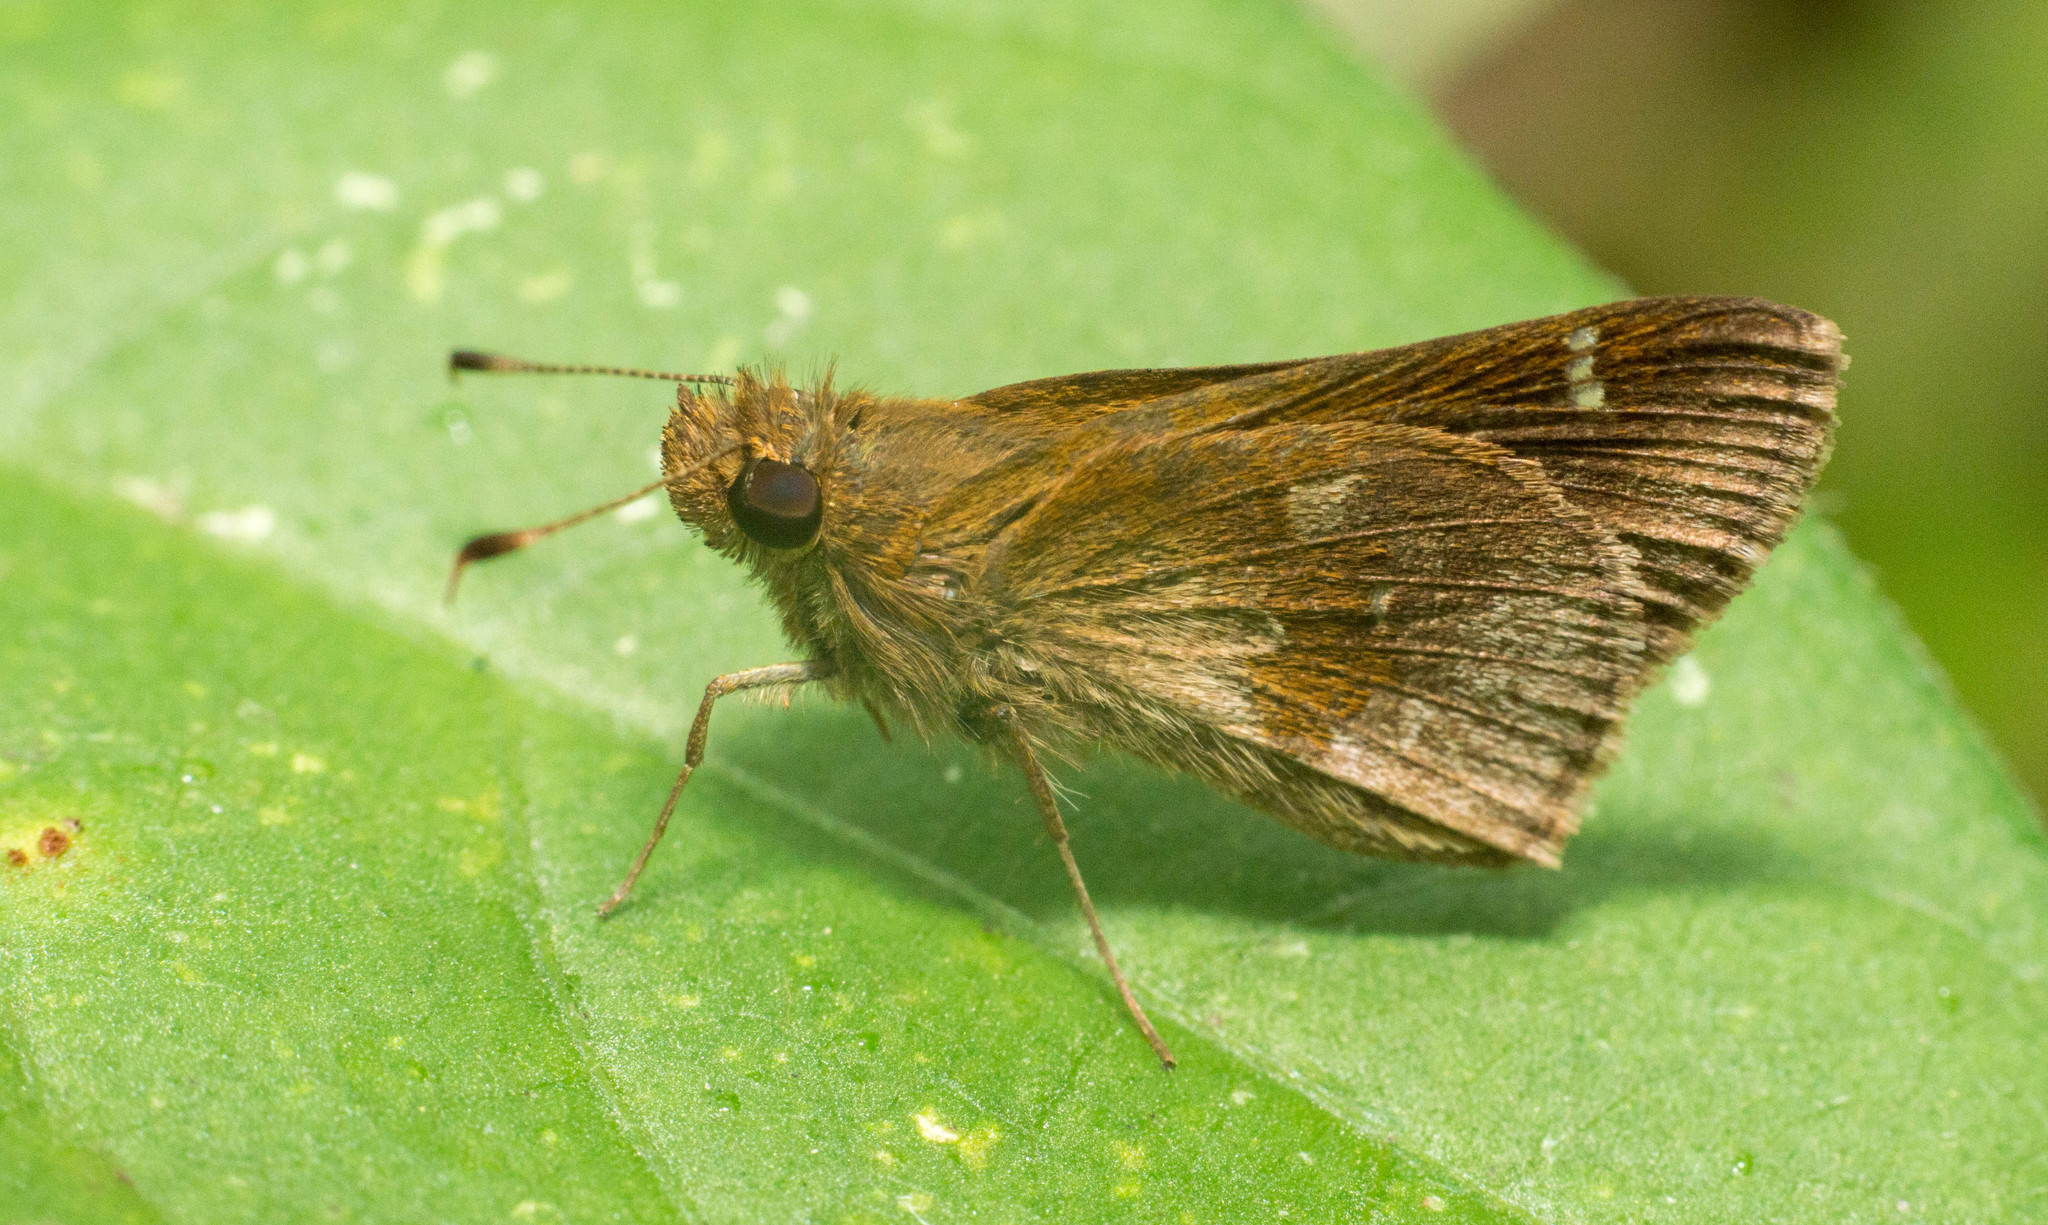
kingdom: Animalia
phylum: Arthropoda
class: Insecta
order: Lepidoptera
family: Hesperiidae
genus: Cymaenes
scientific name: Cymaenes
